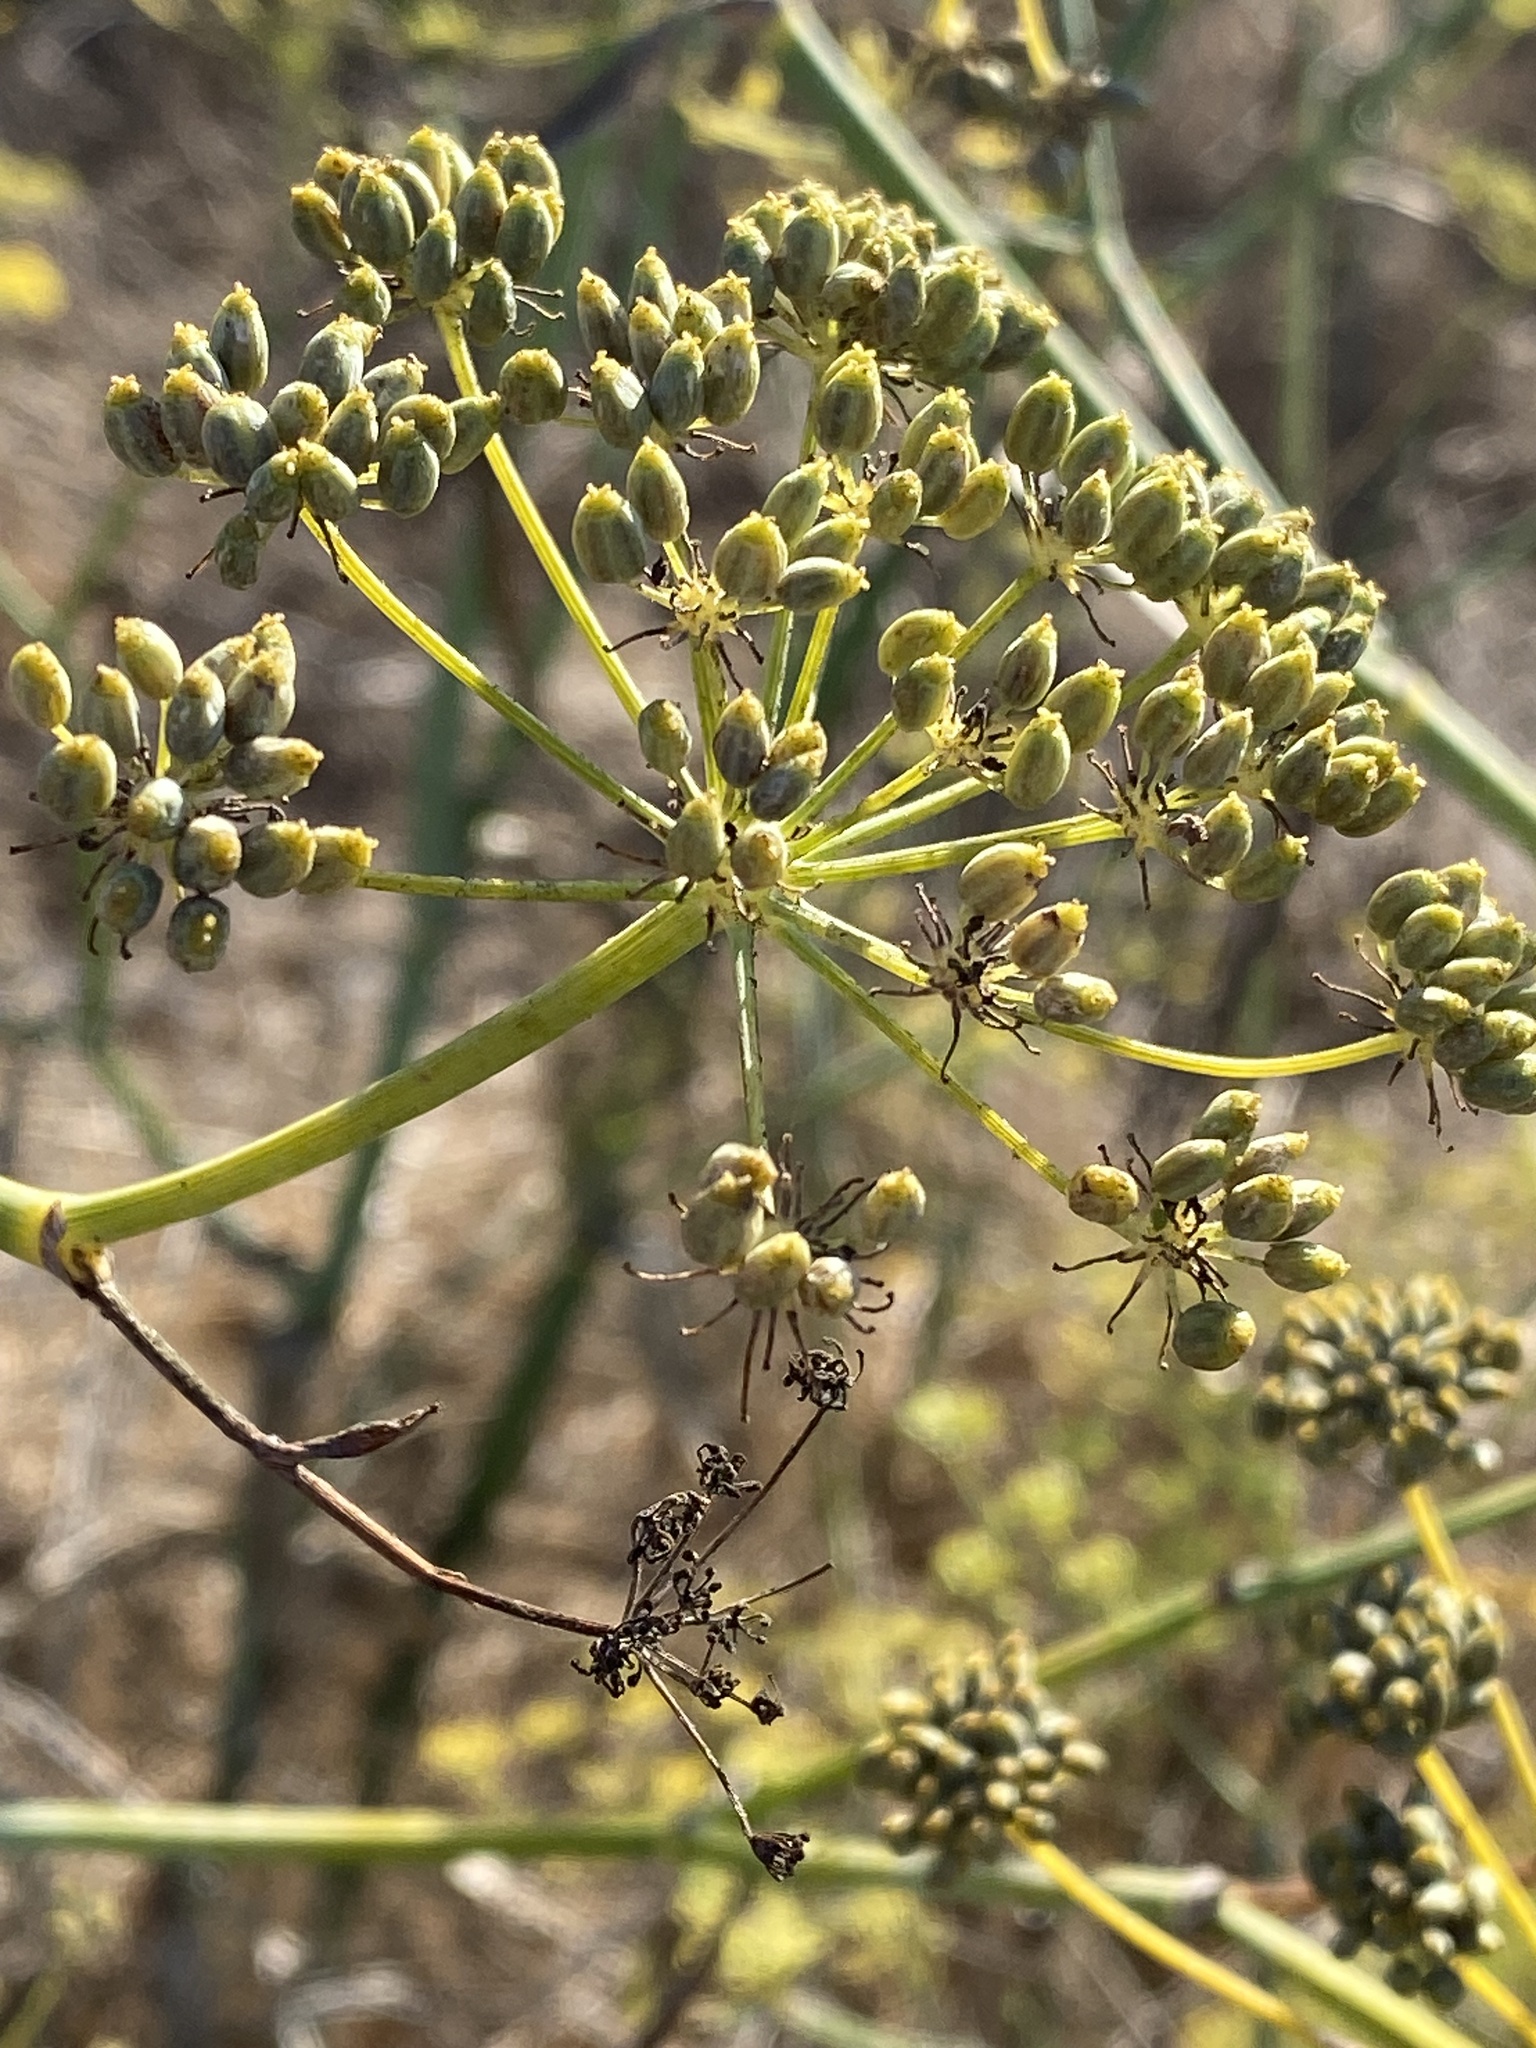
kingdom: Plantae
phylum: Tracheophyta
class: Magnoliopsida
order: Apiales
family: Apiaceae
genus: Foeniculum
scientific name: Foeniculum vulgare
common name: Fennel
